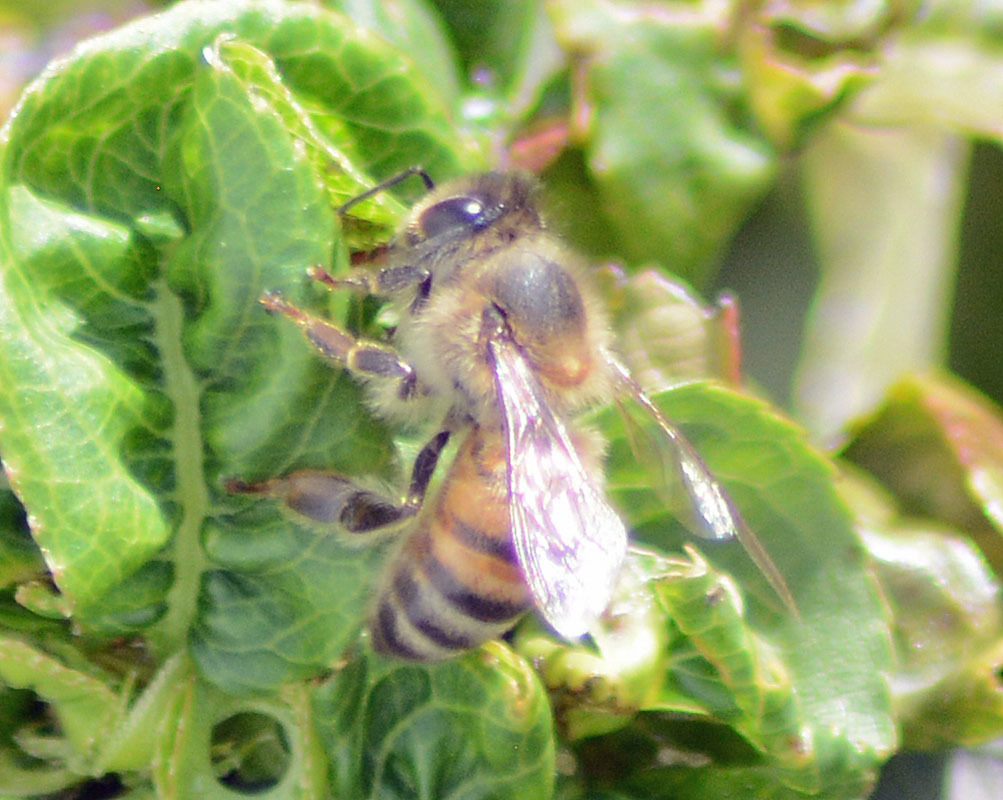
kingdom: Animalia
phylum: Arthropoda
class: Insecta
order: Hymenoptera
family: Apidae
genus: Apis
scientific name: Apis mellifera
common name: Honey bee
